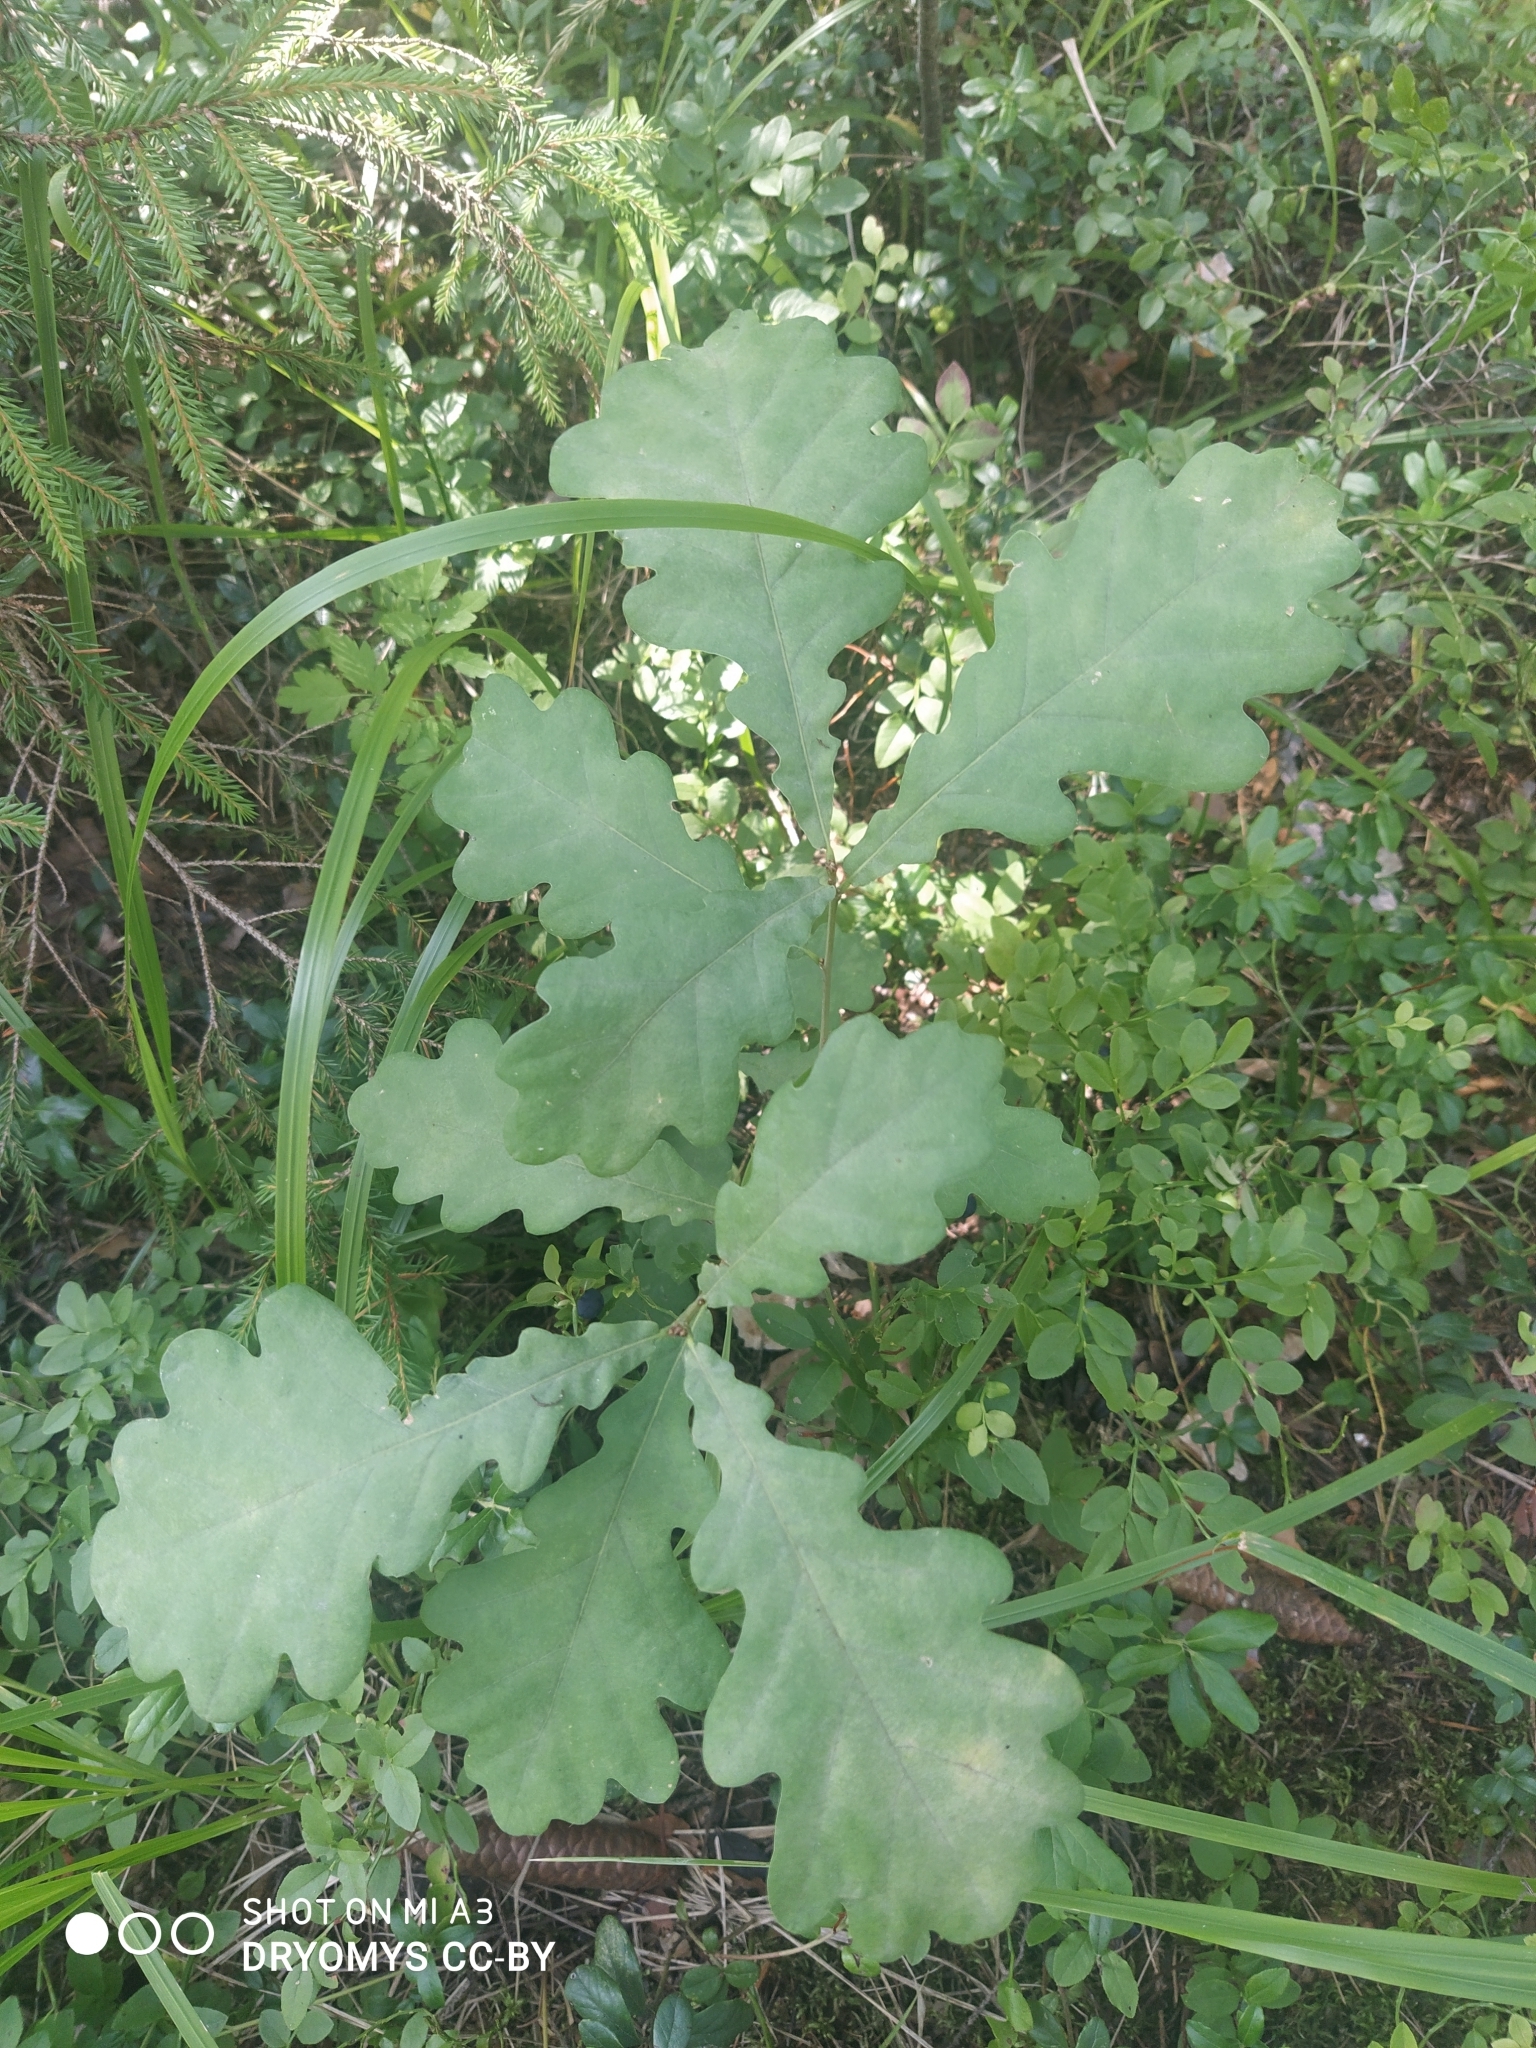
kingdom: Plantae
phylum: Tracheophyta
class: Magnoliopsida
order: Fagales
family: Fagaceae
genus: Quercus
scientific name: Quercus robur
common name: Pedunculate oak
